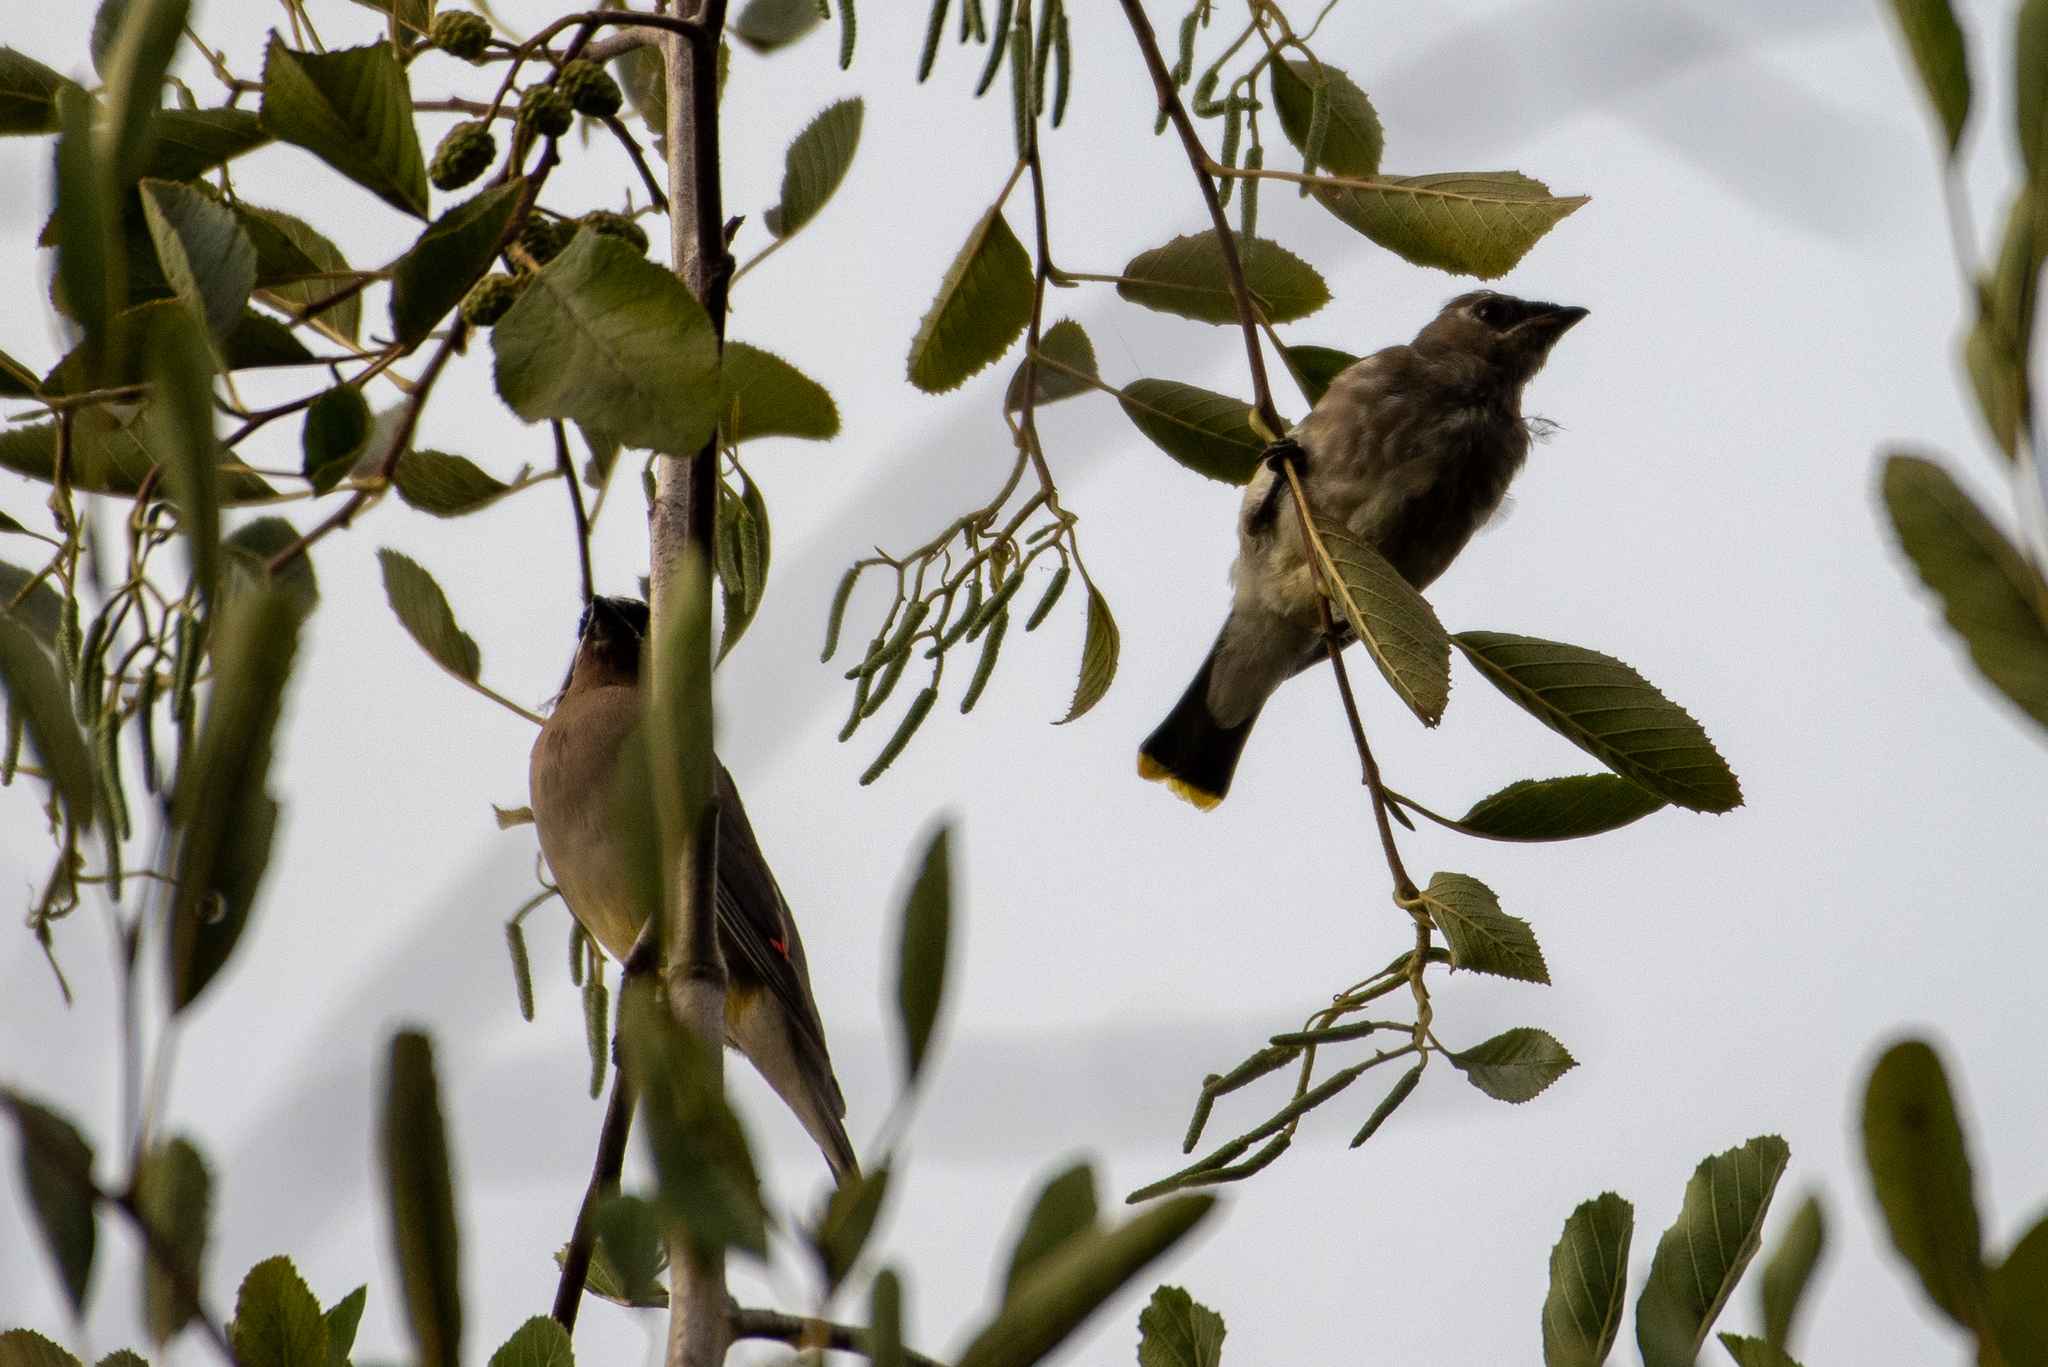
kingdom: Animalia
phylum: Chordata
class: Aves
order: Passeriformes
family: Bombycillidae
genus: Bombycilla
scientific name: Bombycilla cedrorum
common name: Cedar waxwing
